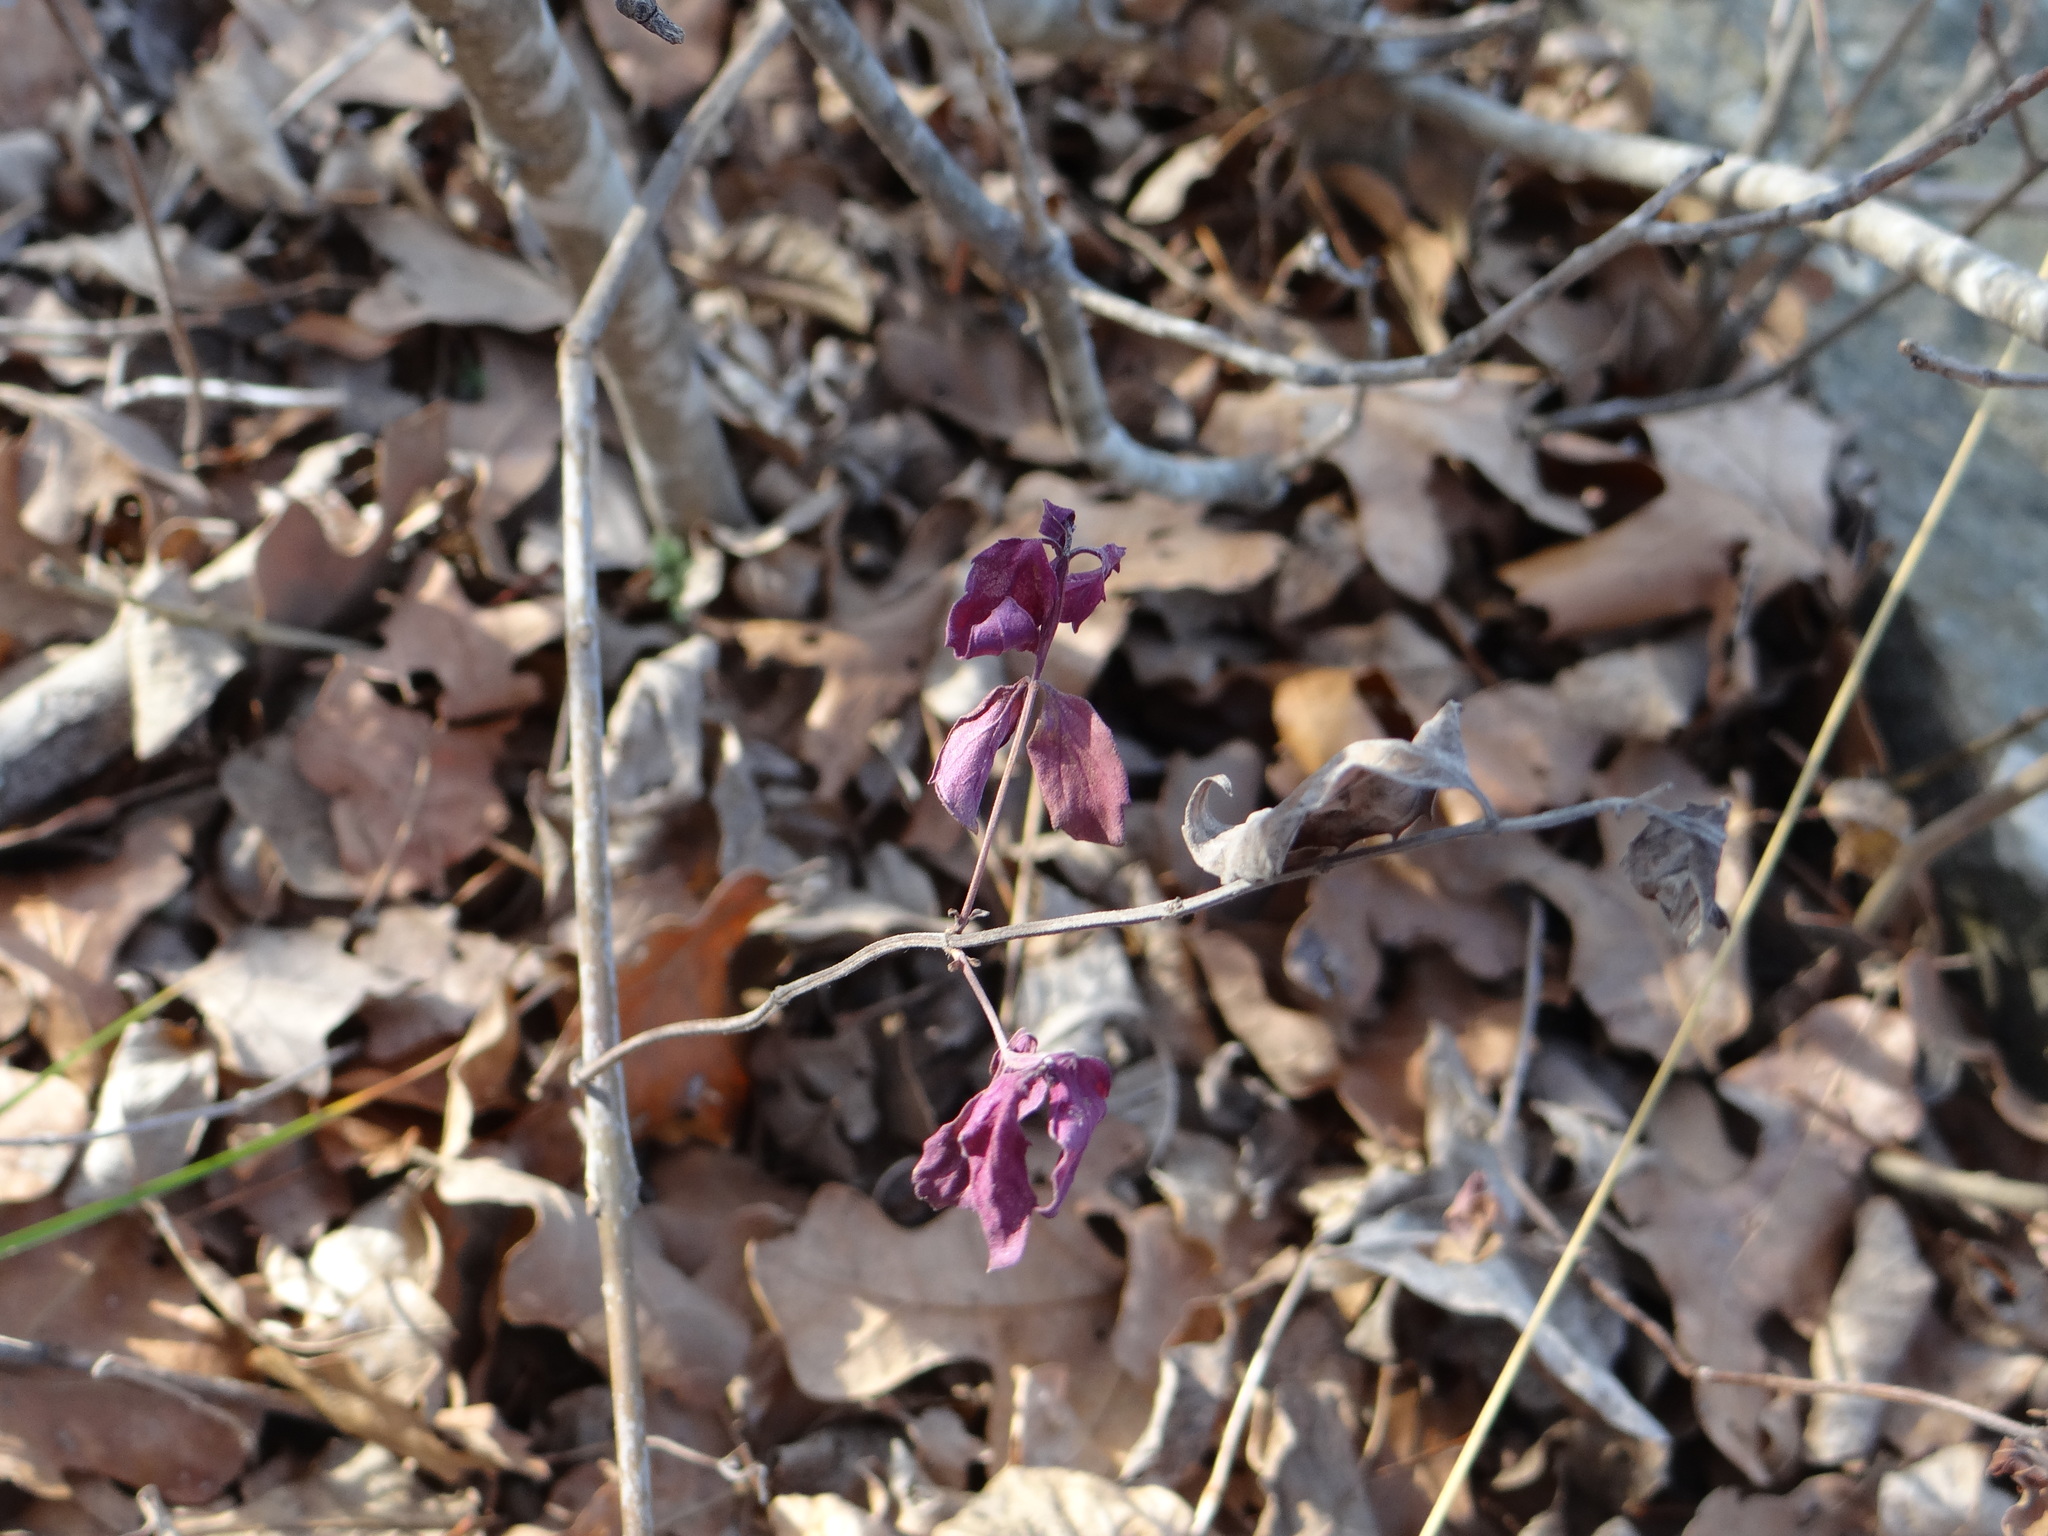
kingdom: Plantae
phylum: Tracheophyta
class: Magnoliopsida
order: Dipsacales
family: Caprifoliaceae
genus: Symphoricarpos
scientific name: Symphoricarpos orbiculatus
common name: Coralberry
